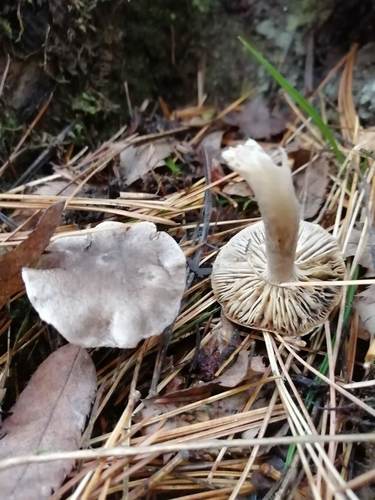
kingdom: Fungi
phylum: Basidiomycota
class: Agaricomycetes
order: Agaricales
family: Tricholomataceae
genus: Tricholoma
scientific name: Tricholoma terreum
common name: Grey knight
